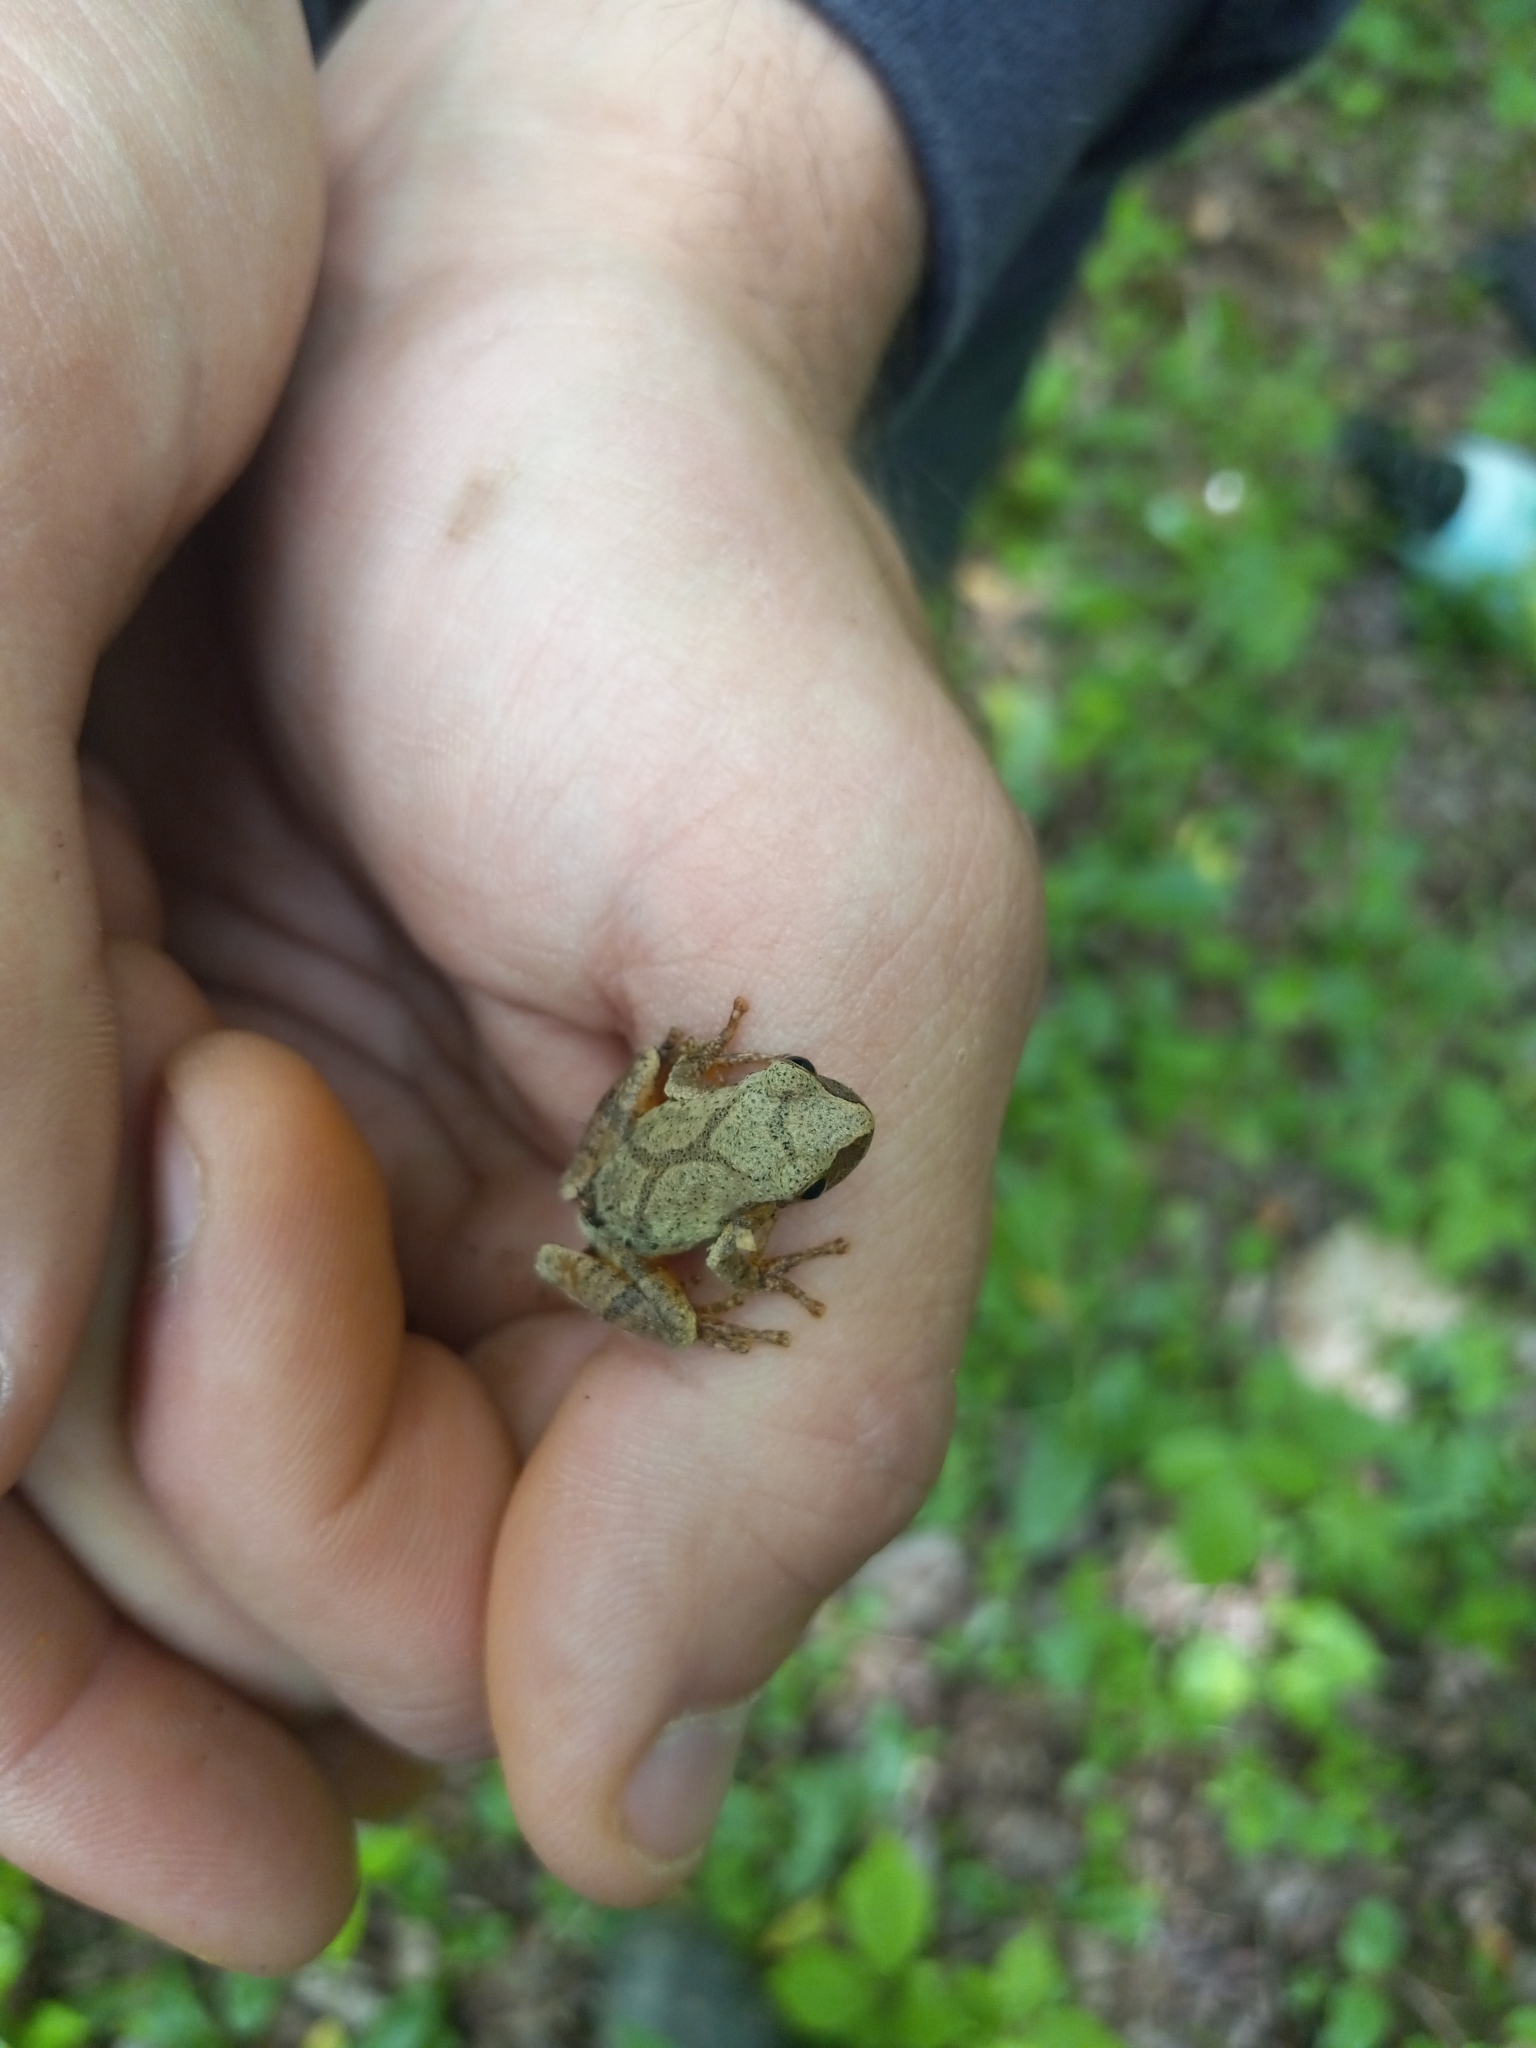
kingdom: Animalia
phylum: Chordata
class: Amphibia
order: Anura
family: Hylidae
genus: Pseudacris
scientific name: Pseudacris crucifer
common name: Spring peeper
